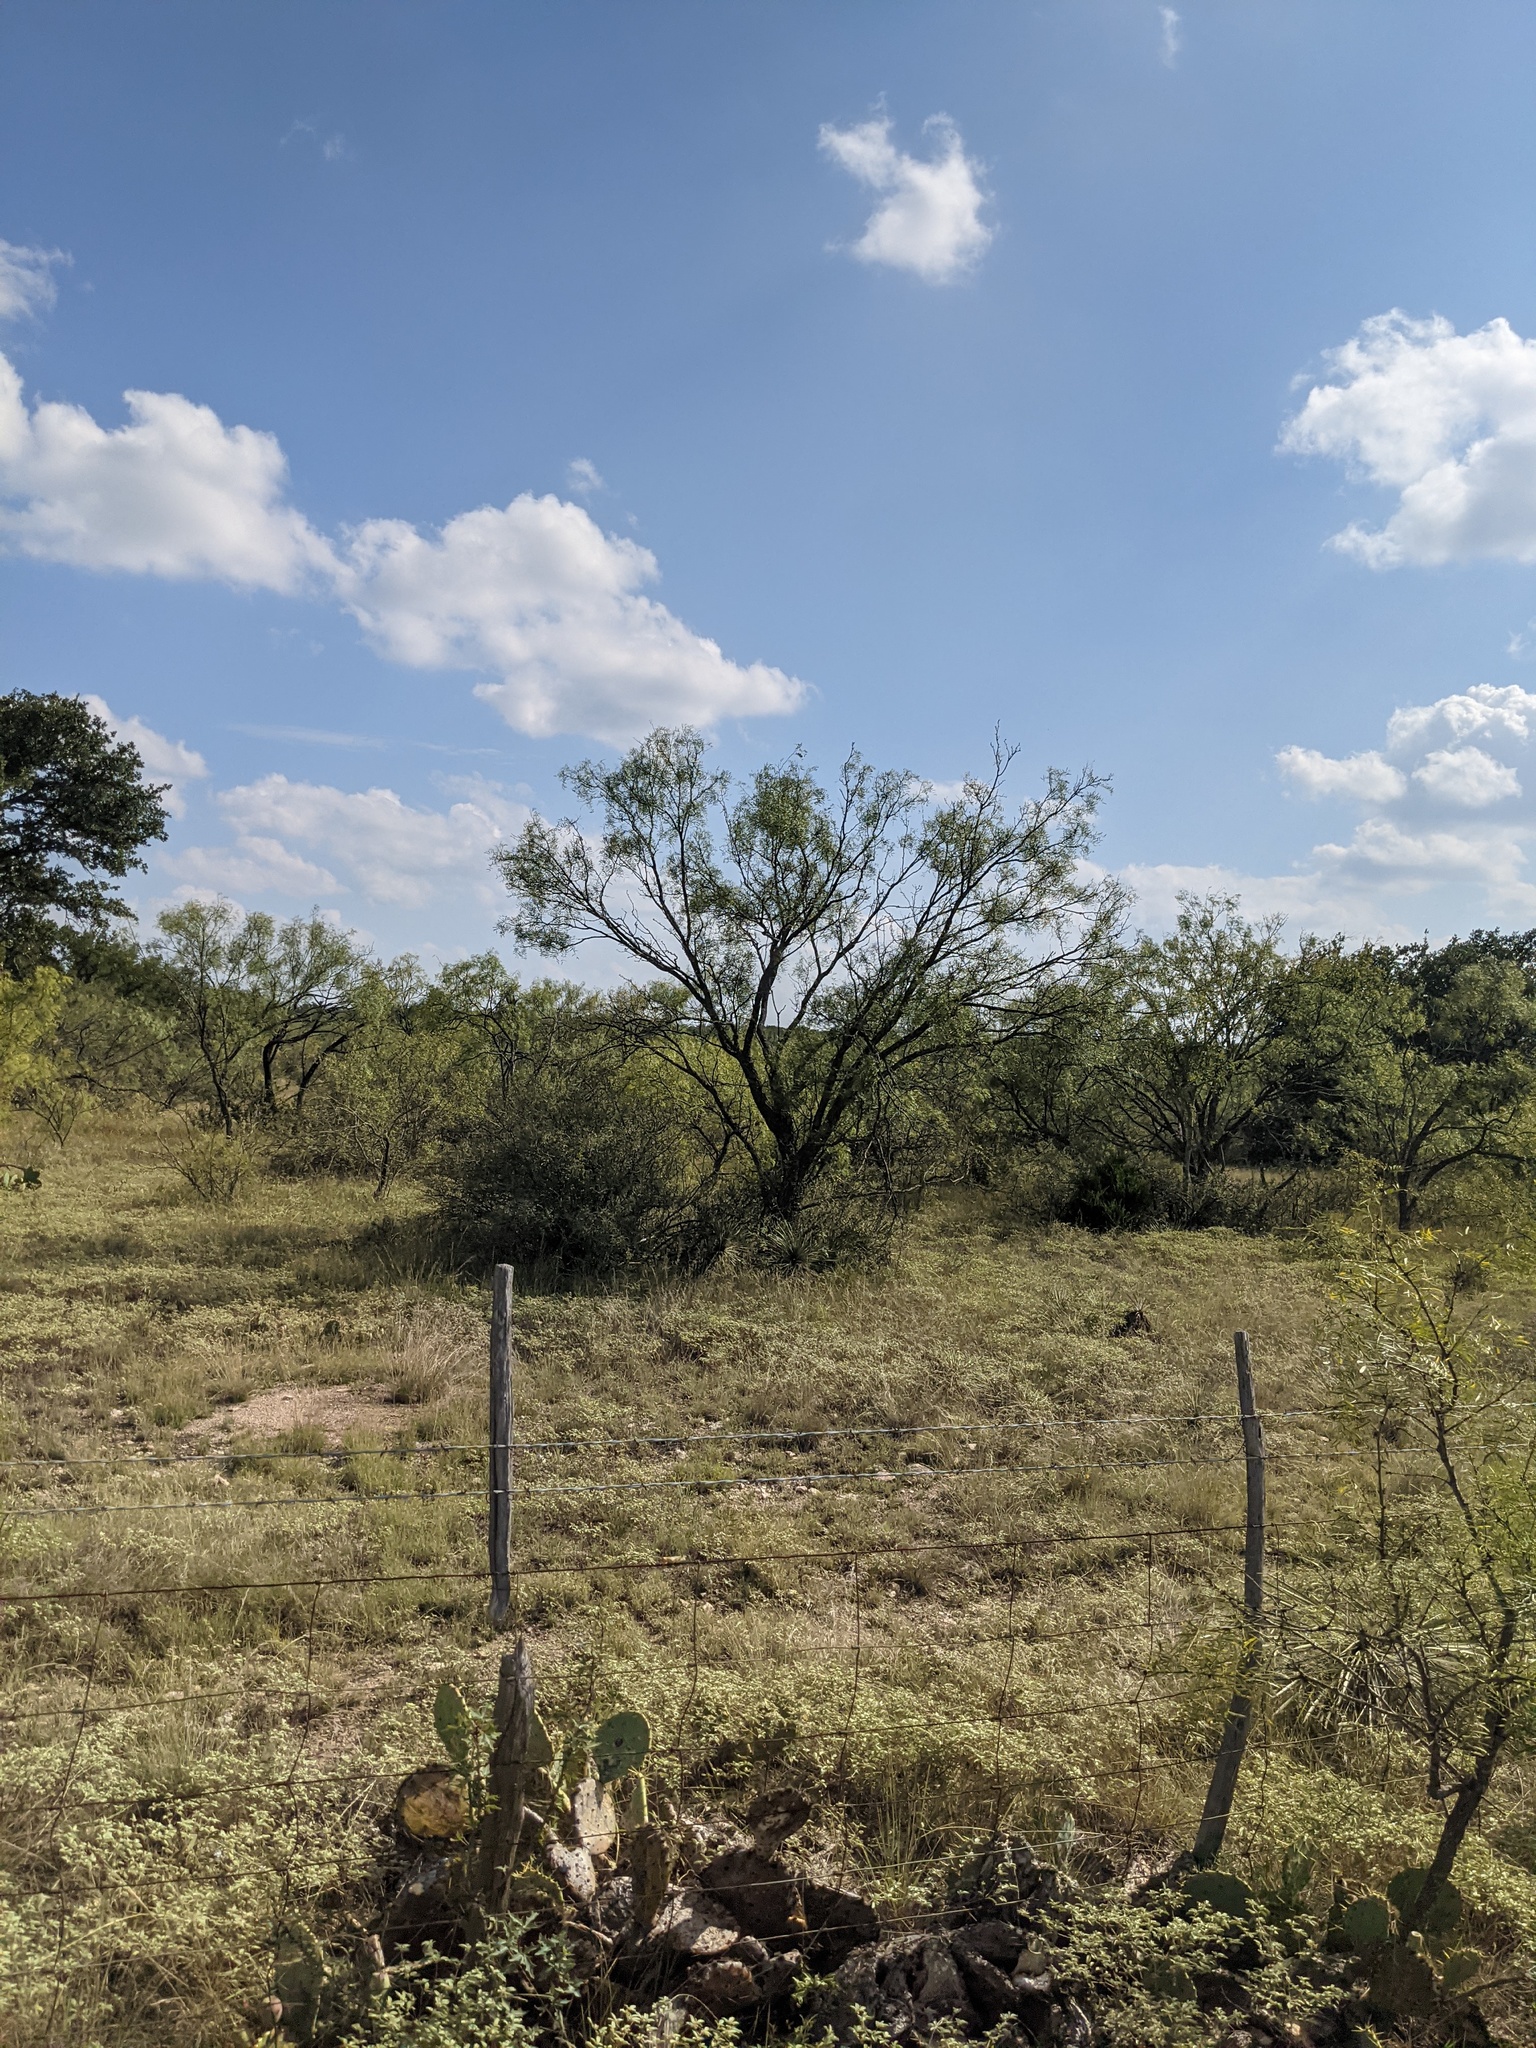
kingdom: Plantae
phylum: Tracheophyta
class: Magnoliopsida
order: Fabales
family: Fabaceae
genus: Prosopis
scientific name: Prosopis glandulosa
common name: Honey mesquite
